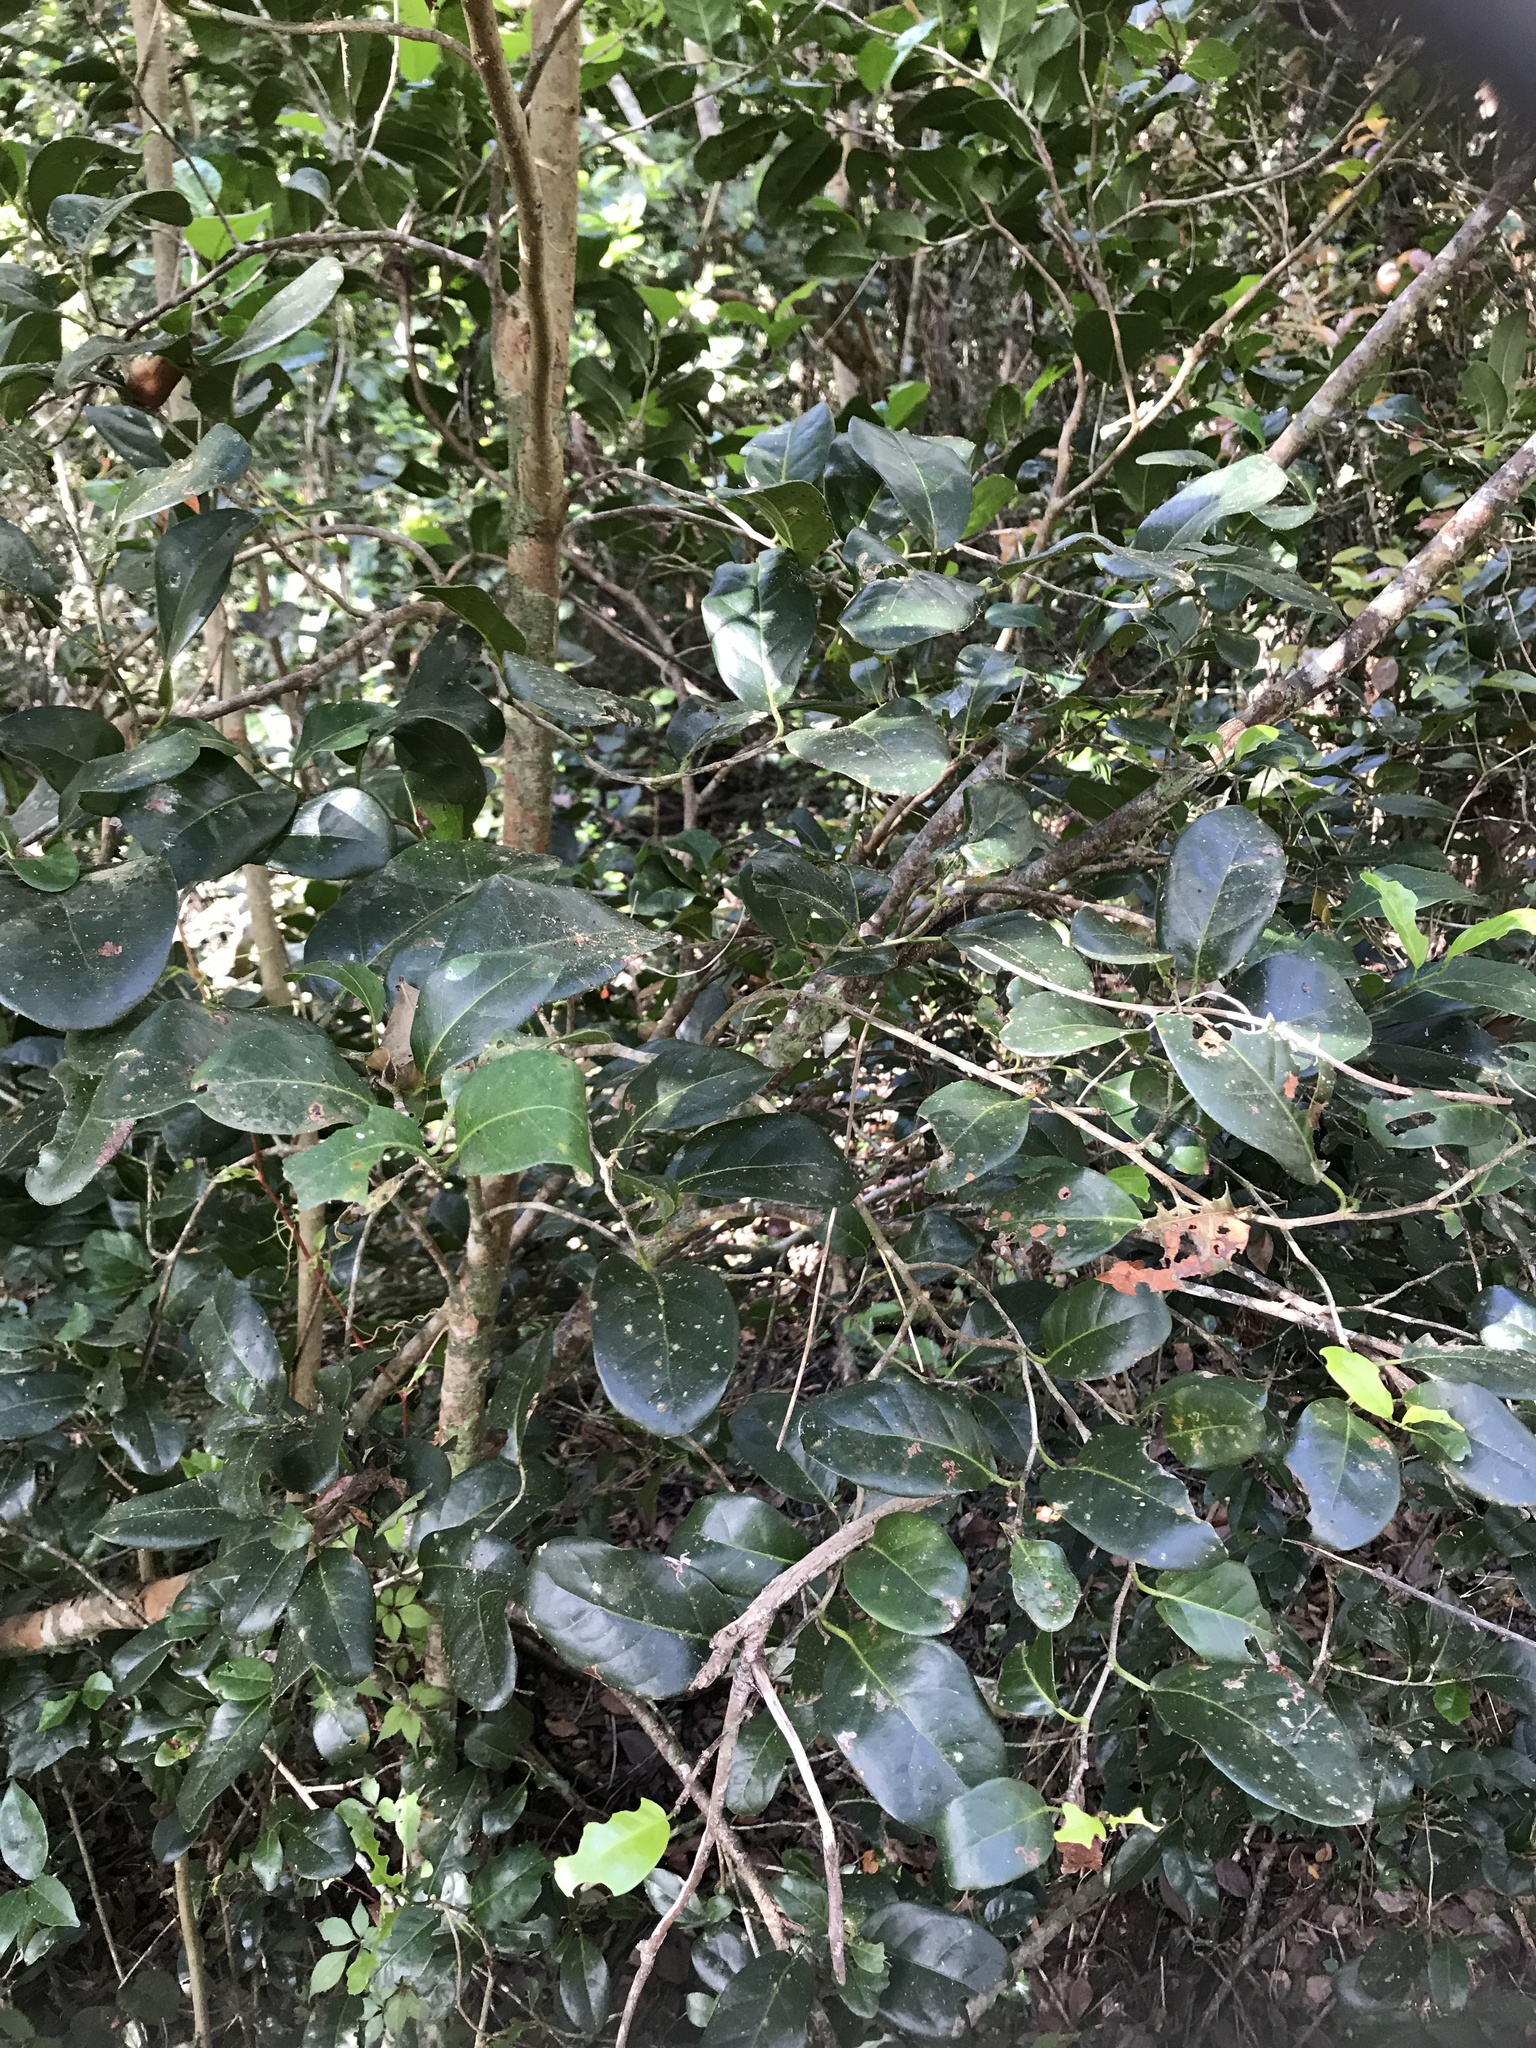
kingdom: Plantae
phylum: Tracheophyta
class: Magnoliopsida
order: Caryophyllales
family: Polygonaceae
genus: Coccoloba
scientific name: Coccoloba diversifolia
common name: Pigeon-plum
